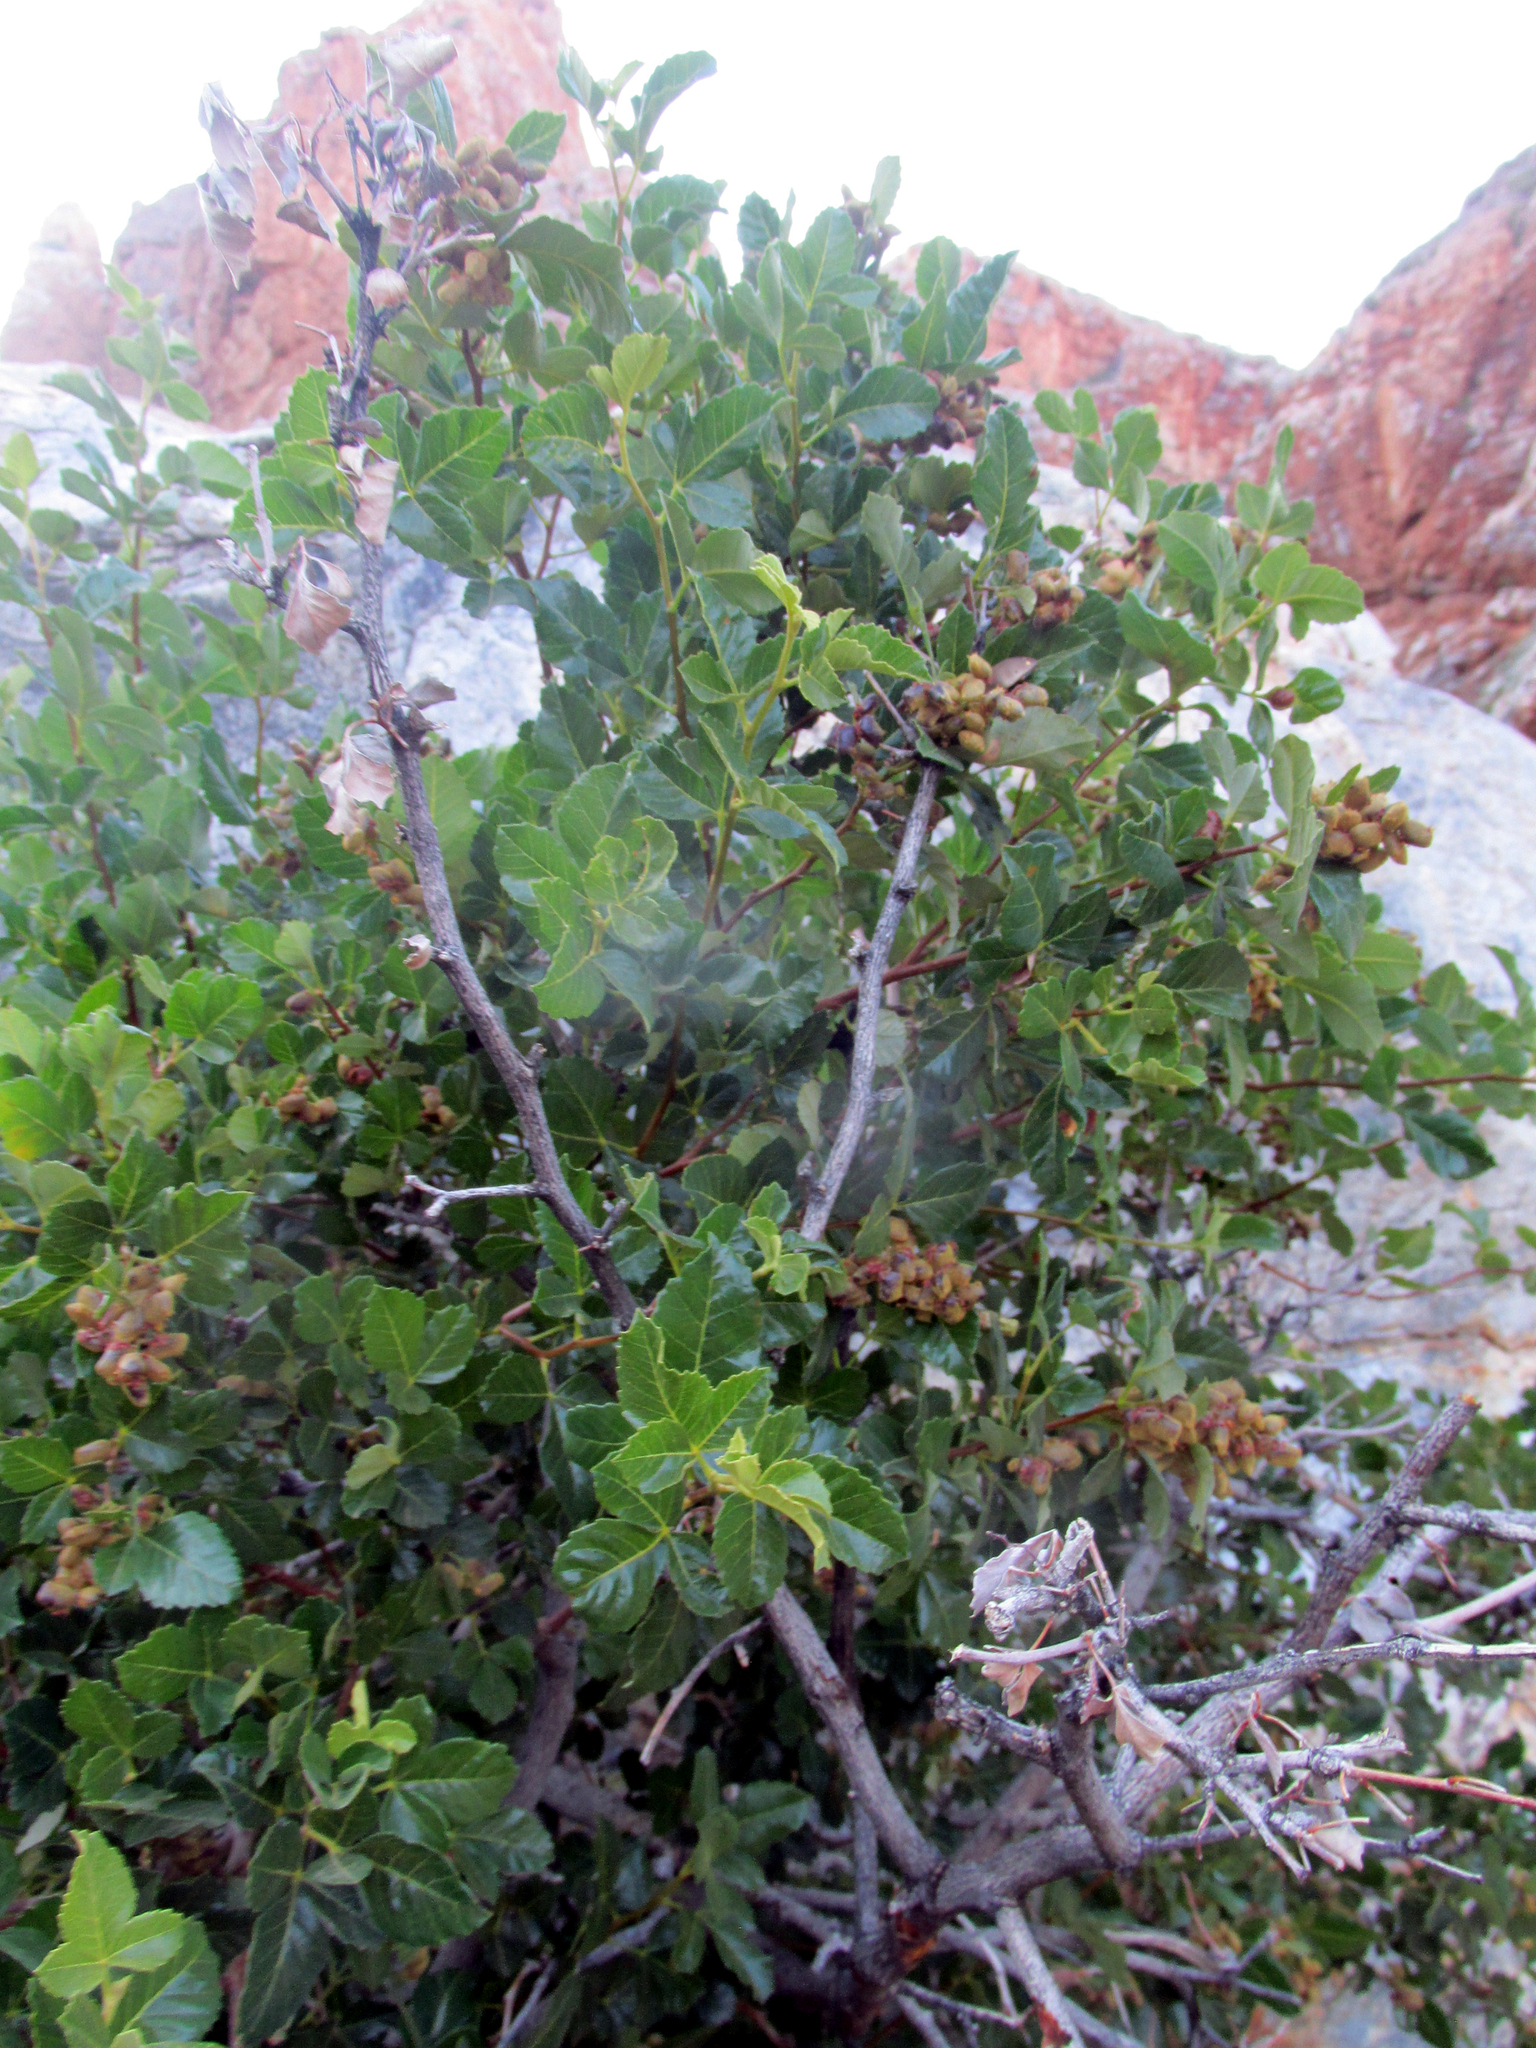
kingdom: Plantae
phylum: Tracheophyta
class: Magnoliopsida
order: Sapindales
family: Anacardiaceae
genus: Searsia
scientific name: Searsia populifolia
